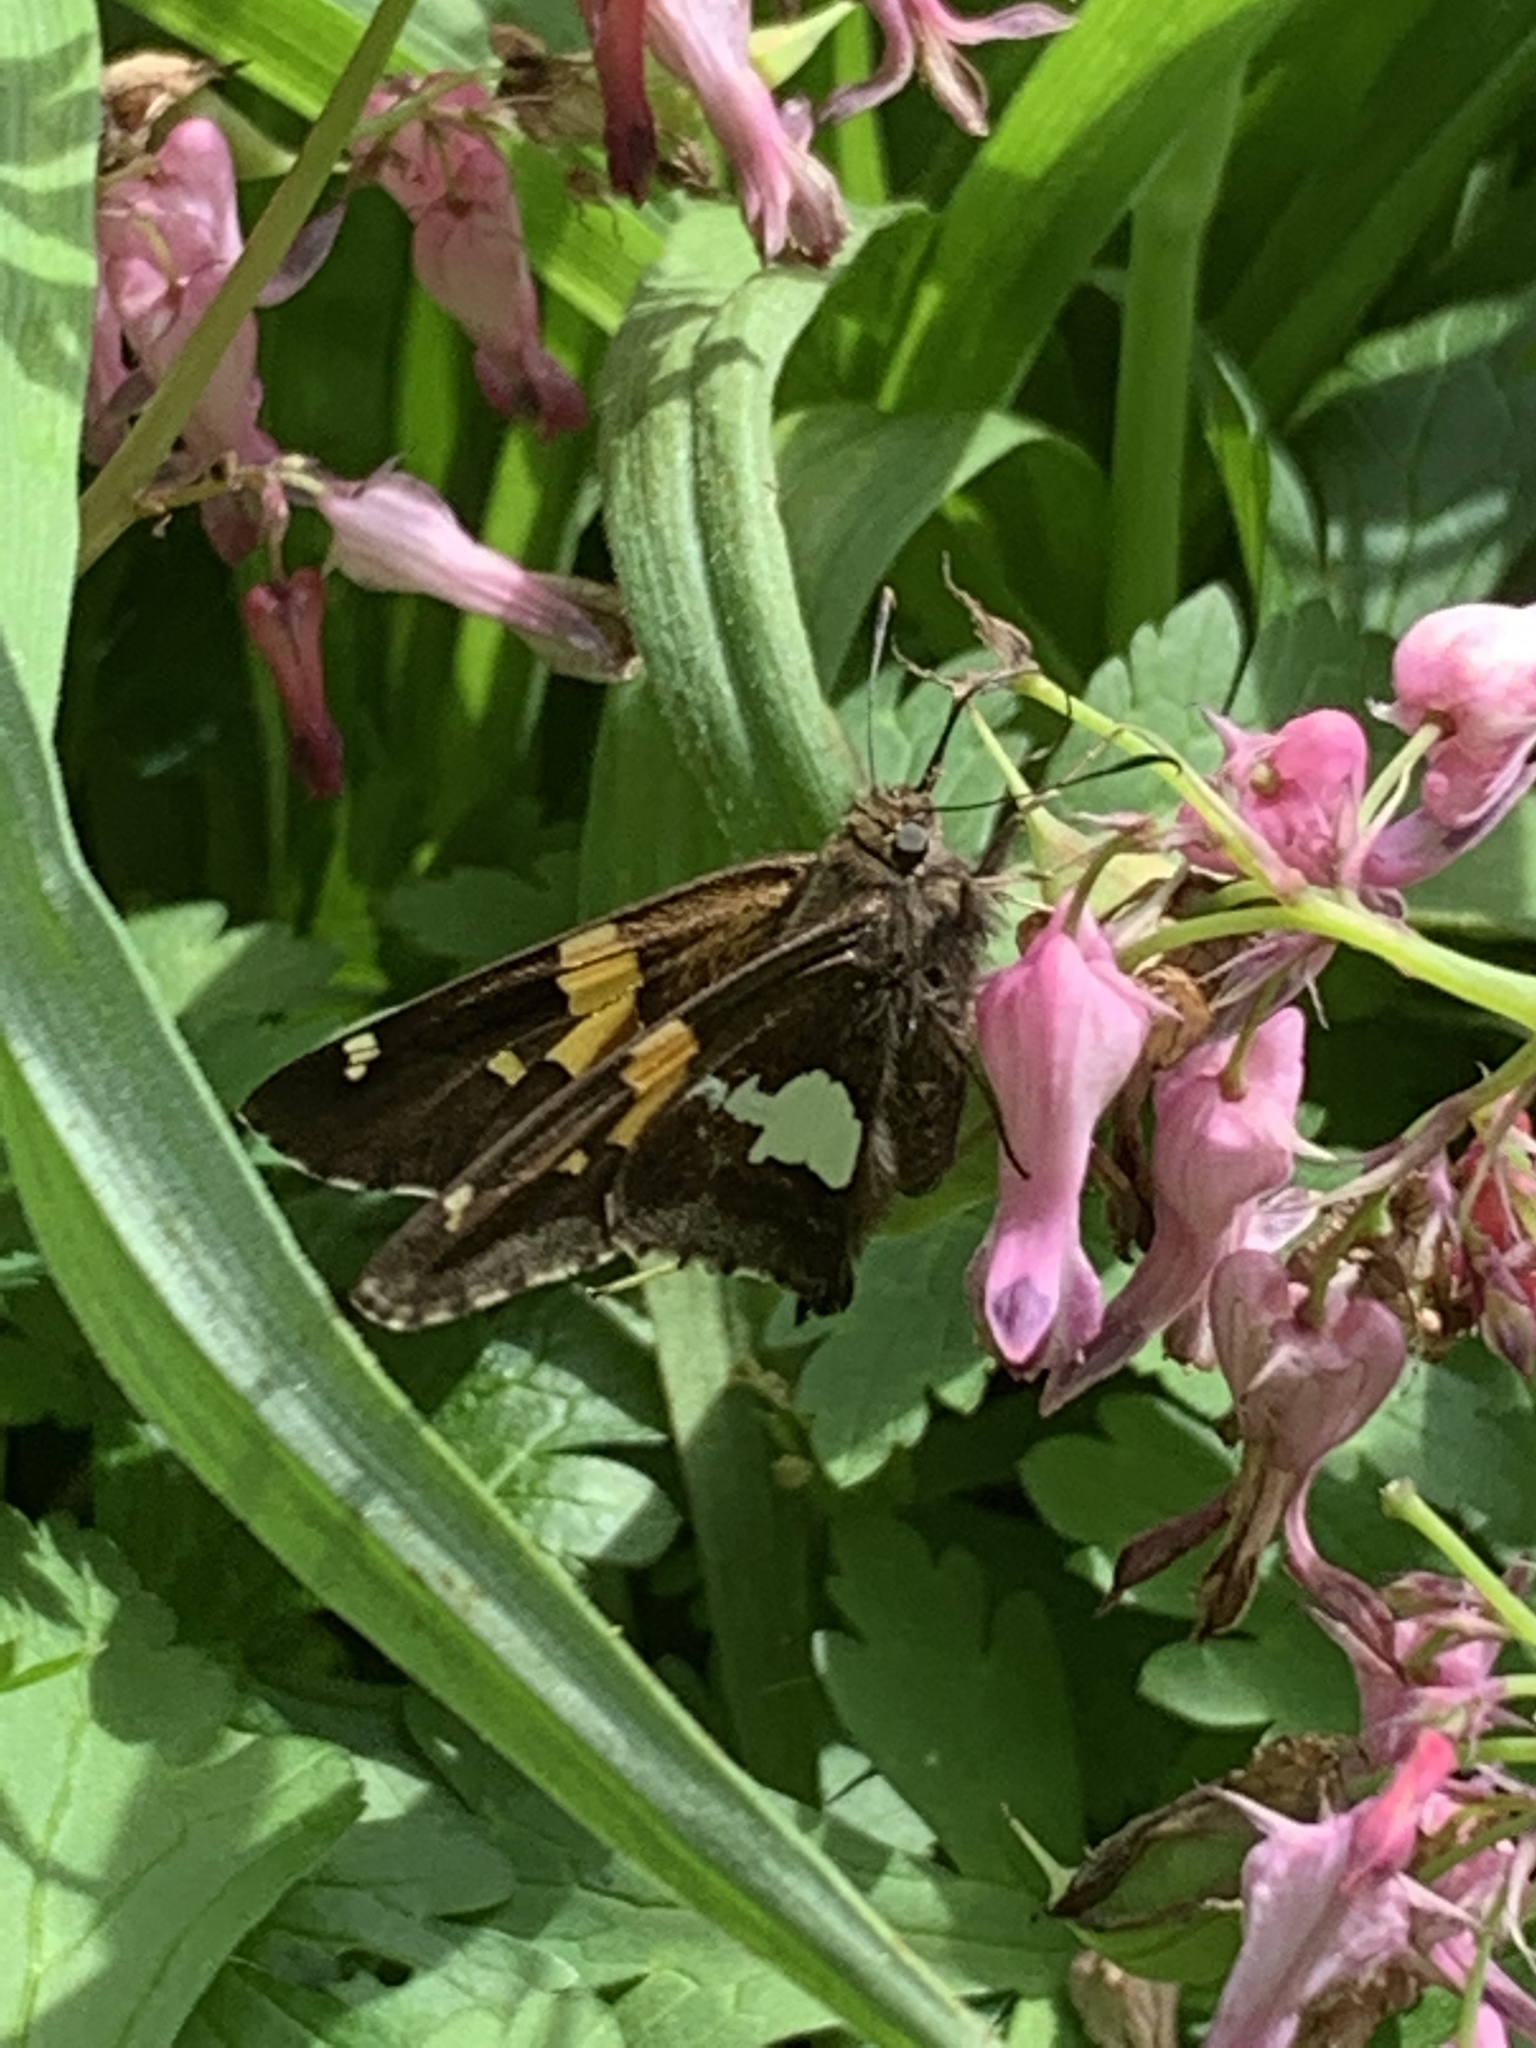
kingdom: Animalia
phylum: Arthropoda
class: Insecta
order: Lepidoptera
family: Hesperiidae
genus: Epargyreus
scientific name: Epargyreus clarus
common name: Silver-spotted skipper
